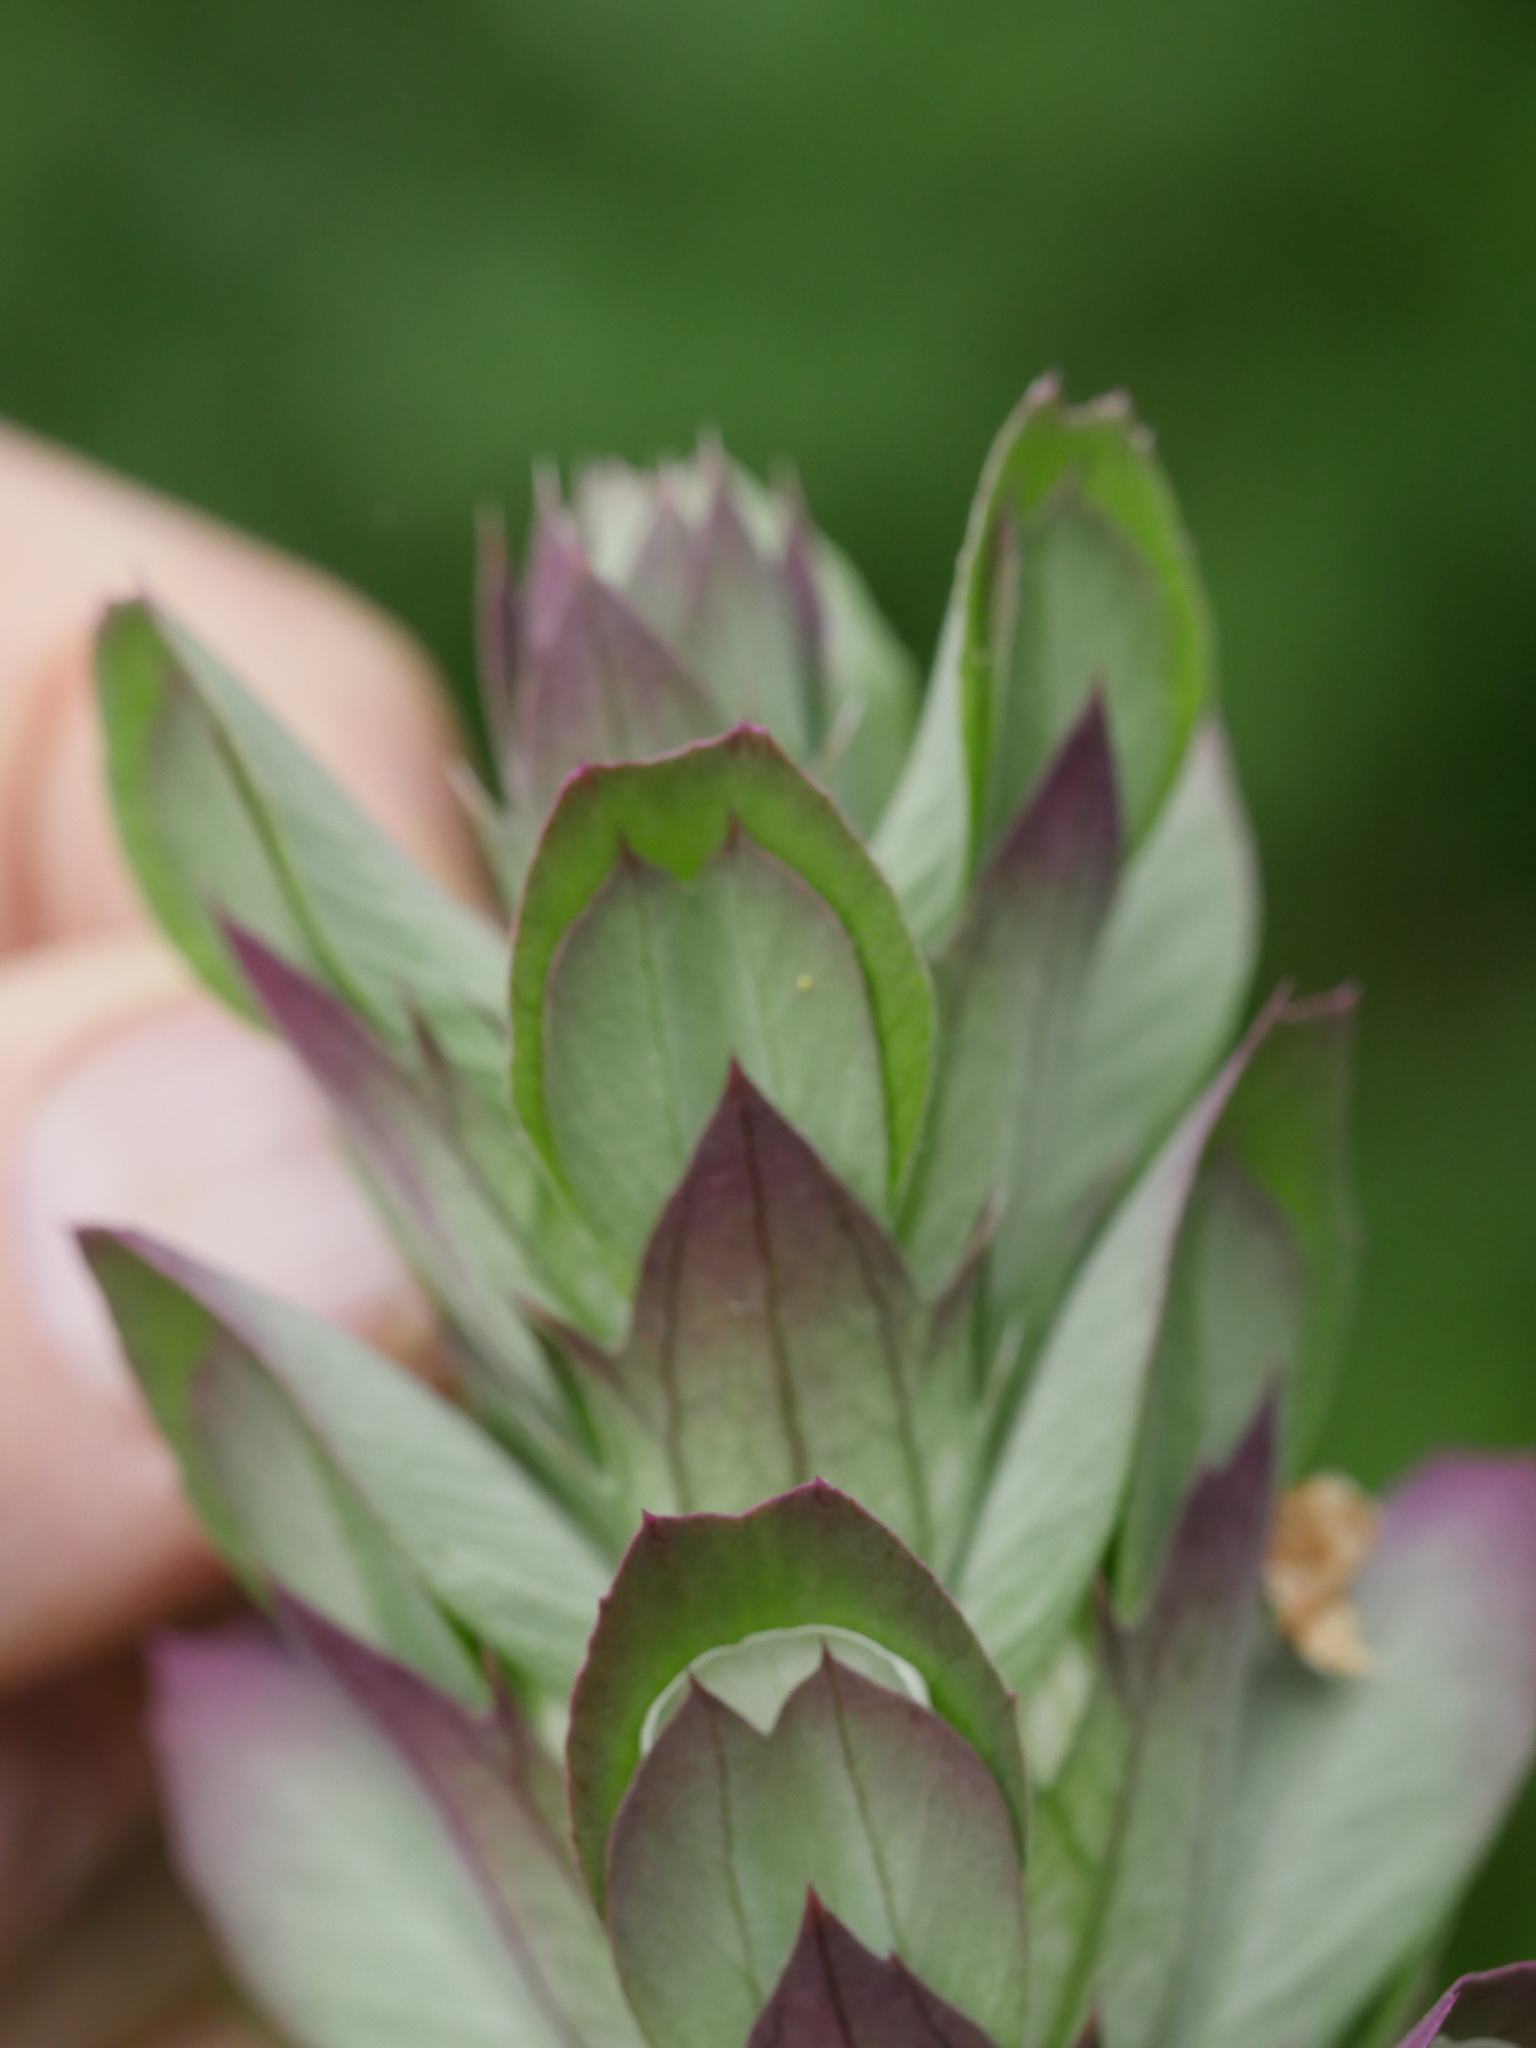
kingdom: Plantae
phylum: Tracheophyta
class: Magnoliopsida
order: Lamiales
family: Acanthaceae
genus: Acanthus
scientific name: Acanthus mollis
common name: Bear's-breech
